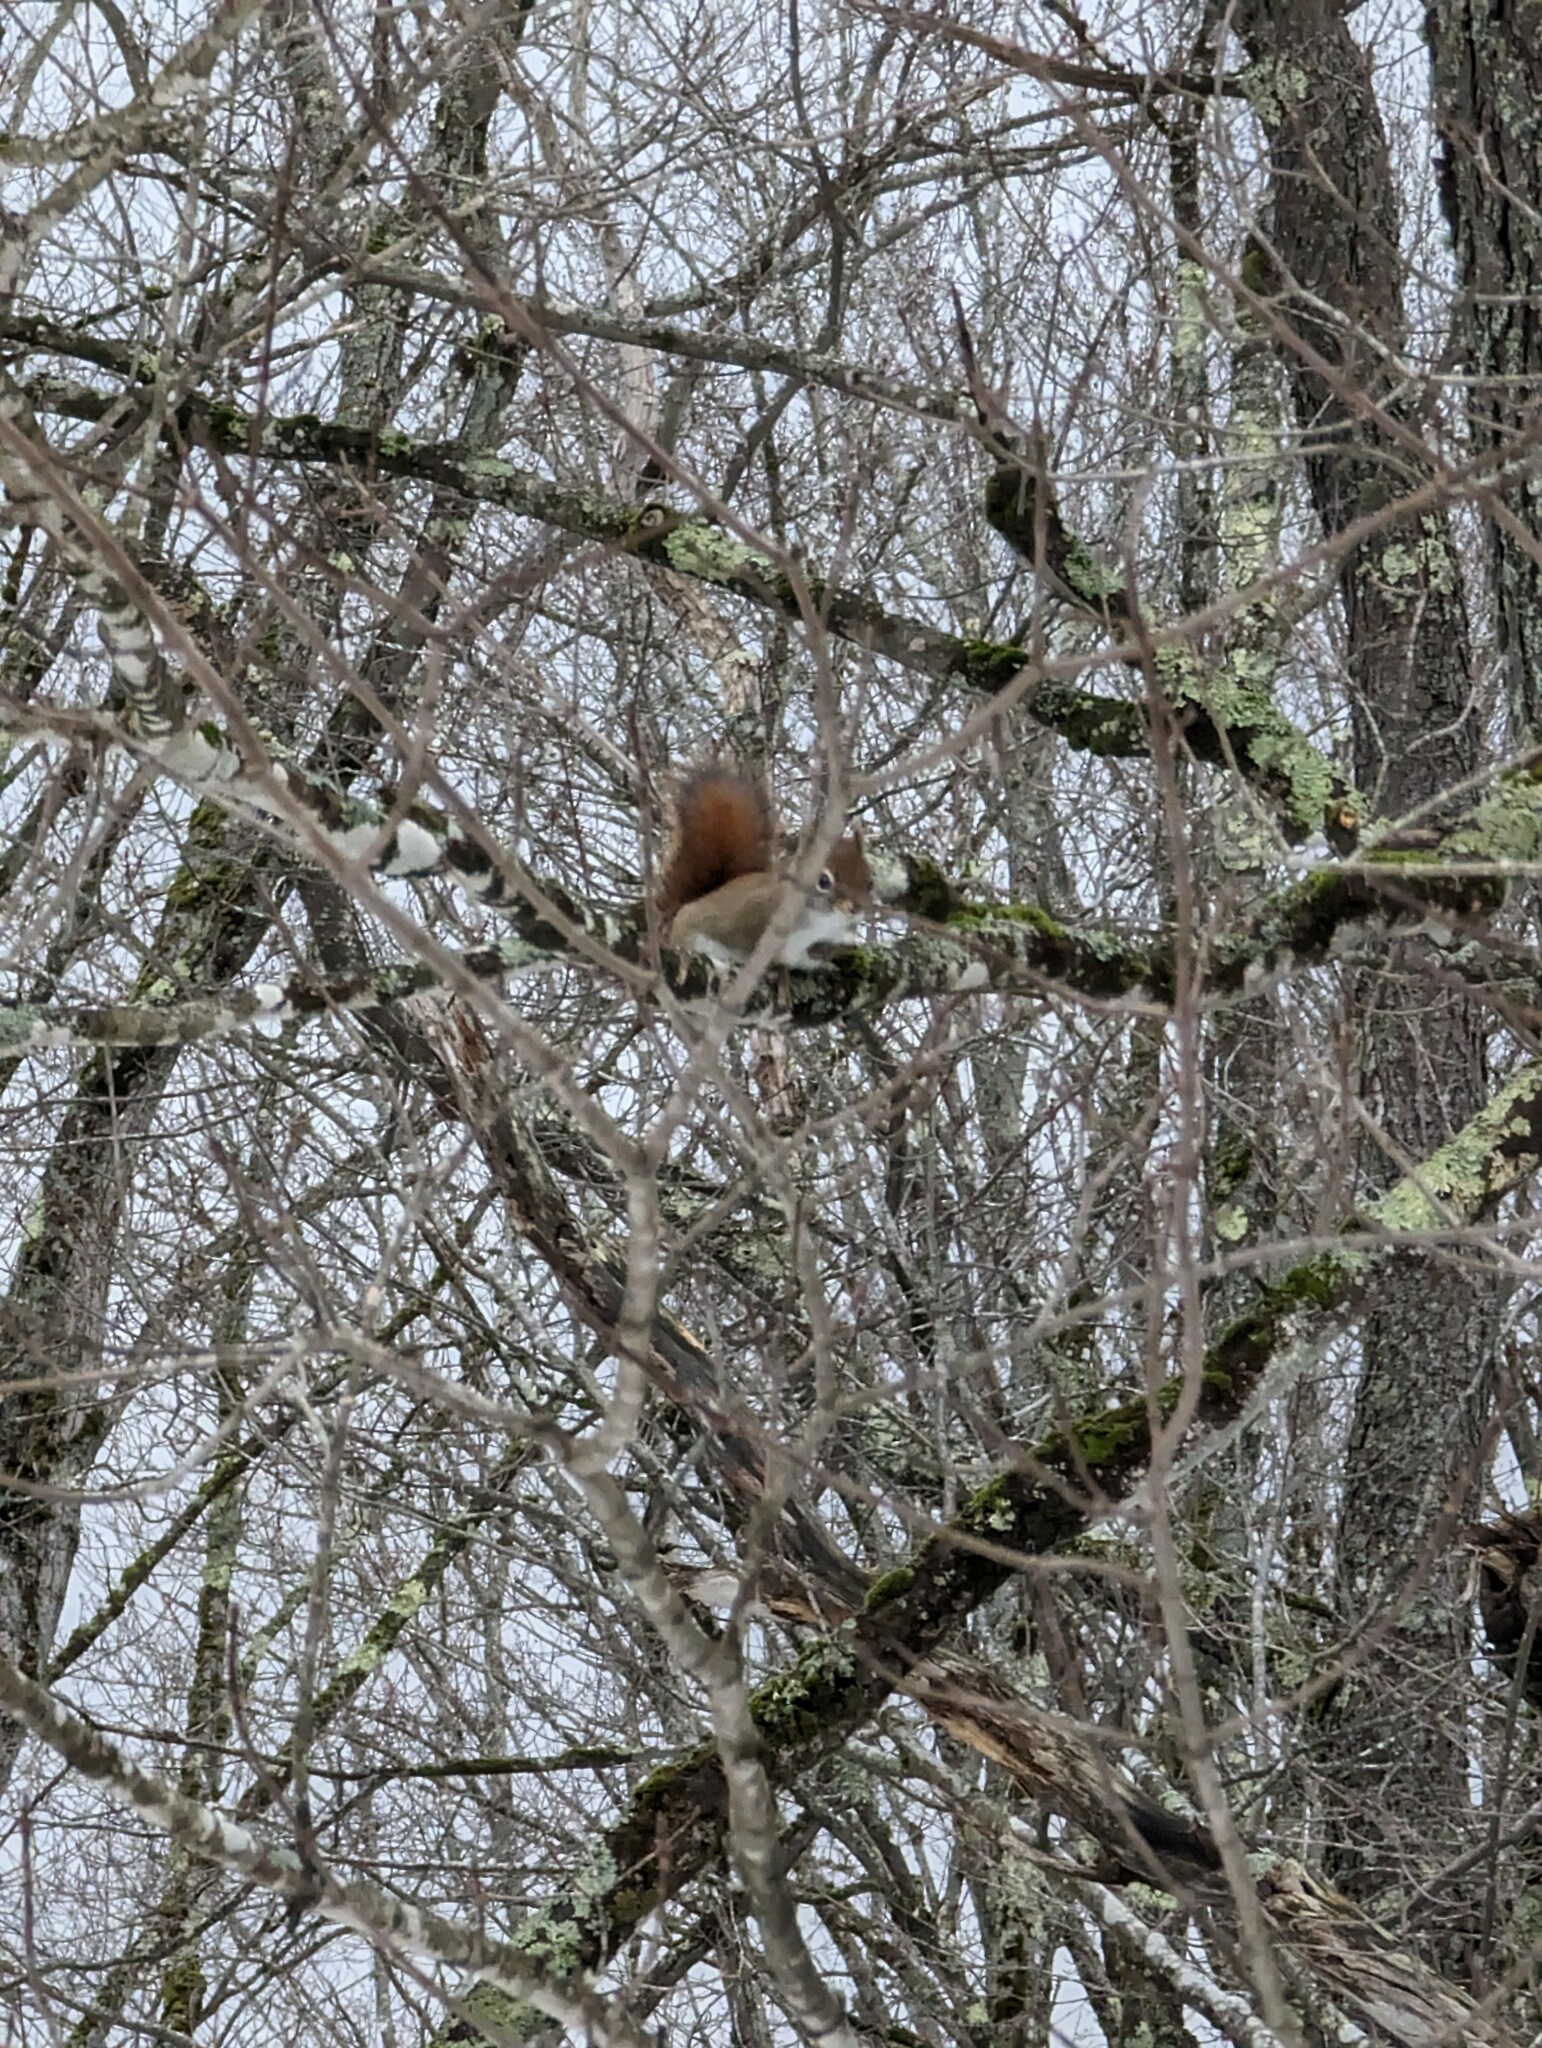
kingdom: Animalia
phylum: Chordata
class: Mammalia
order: Rodentia
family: Sciuridae
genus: Tamiasciurus
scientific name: Tamiasciurus hudsonicus
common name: Red squirrel
